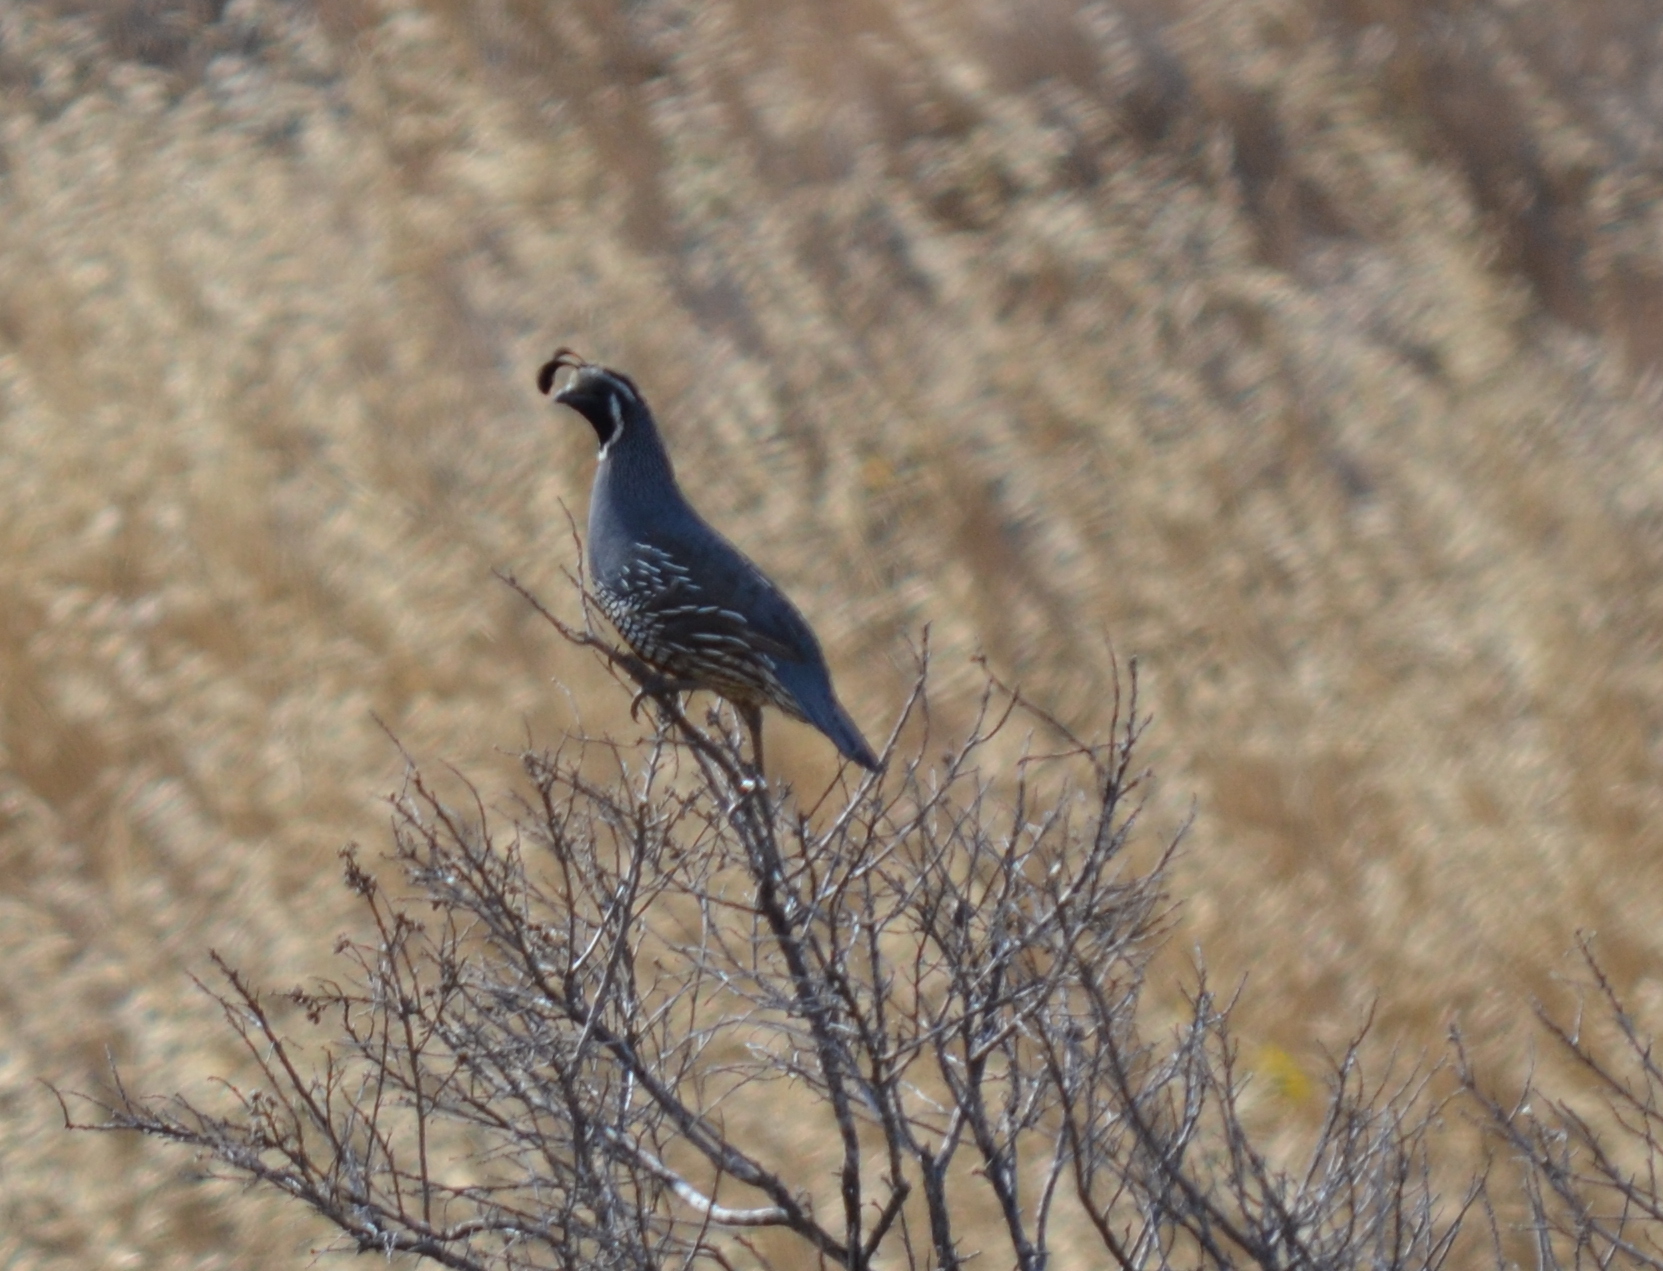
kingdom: Animalia
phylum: Chordata
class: Aves
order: Galliformes
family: Odontophoridae
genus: Callipepla
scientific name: Callipepla californica
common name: California quail
